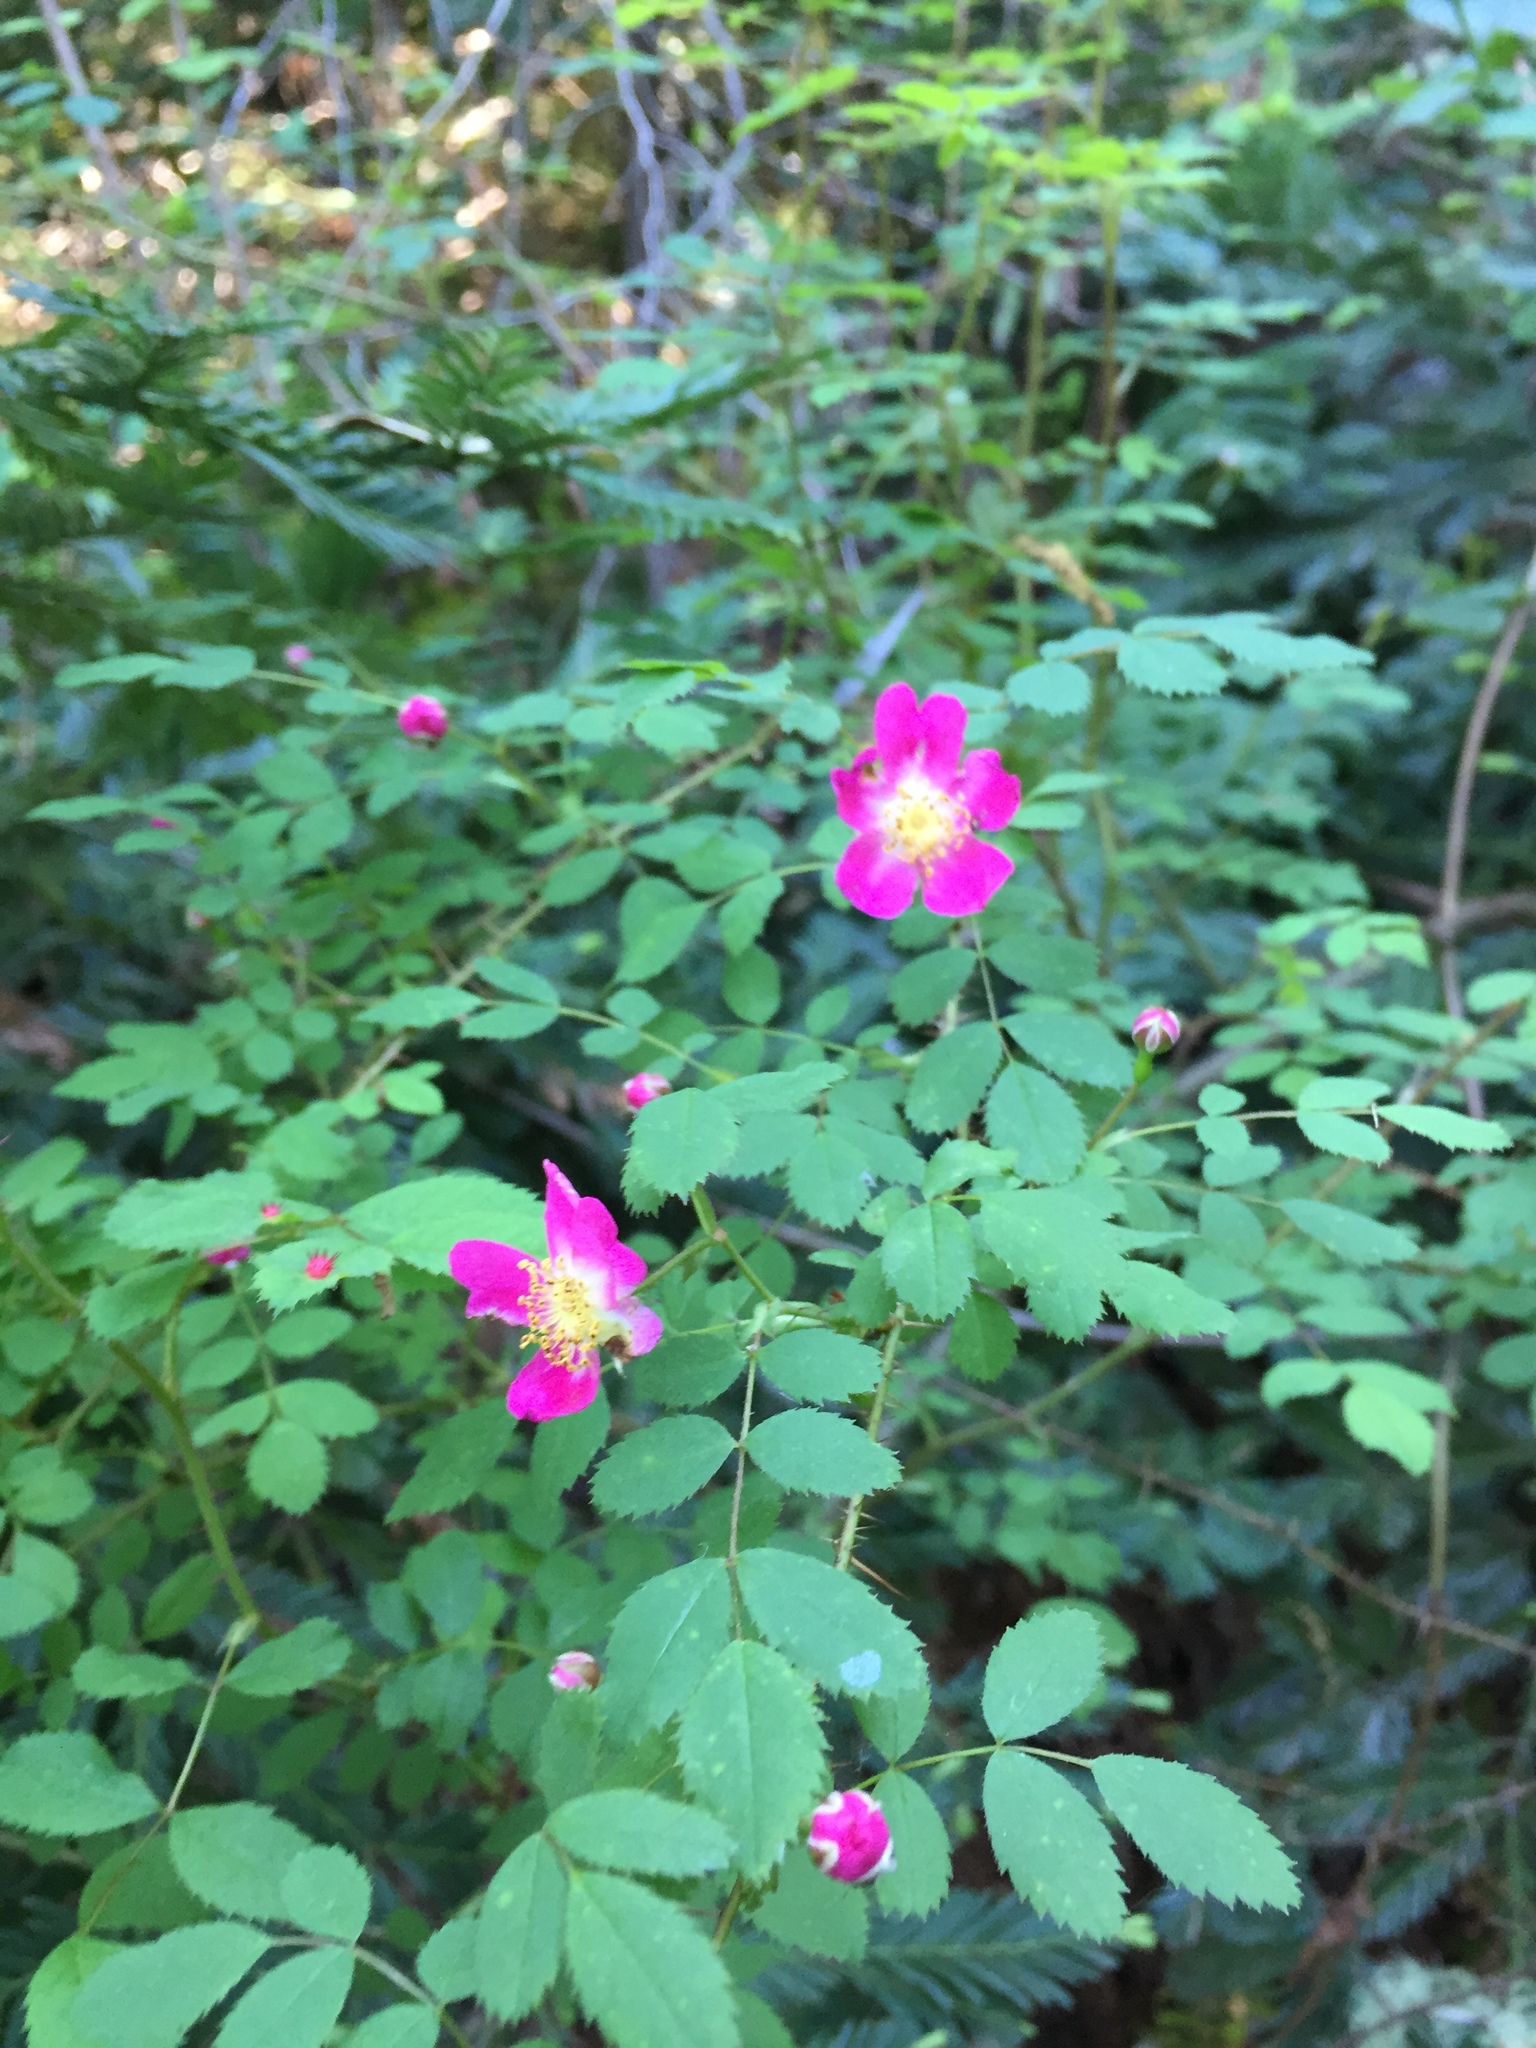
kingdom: Plantae
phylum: Tracheophyta
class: Magnoliopsida
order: Rosales
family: Rosaceae
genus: Rosa
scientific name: Rosa gymnocarpa
